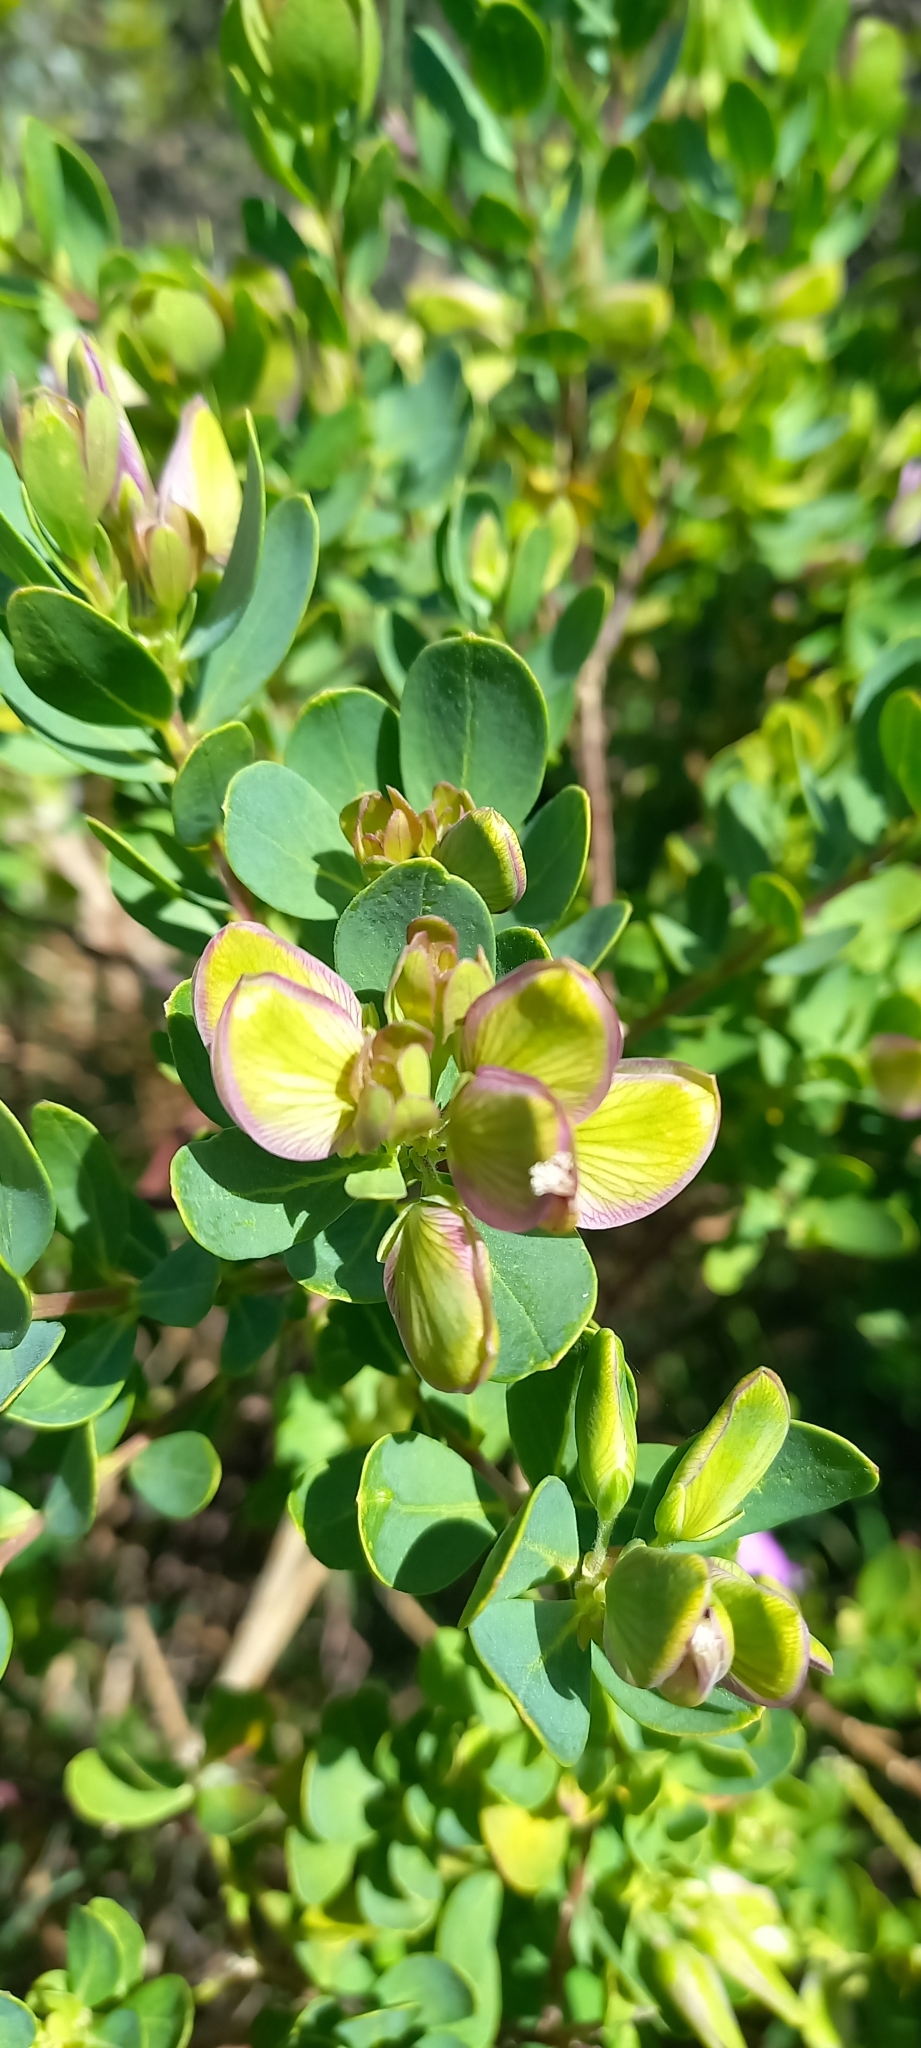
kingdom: Plantae
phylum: Tracheophyta
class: Magnoliopsida
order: Fabales
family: Polygalaceae
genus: Polygala
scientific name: Polygala myrtifolia
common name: Myrtle-leaf milkwort
